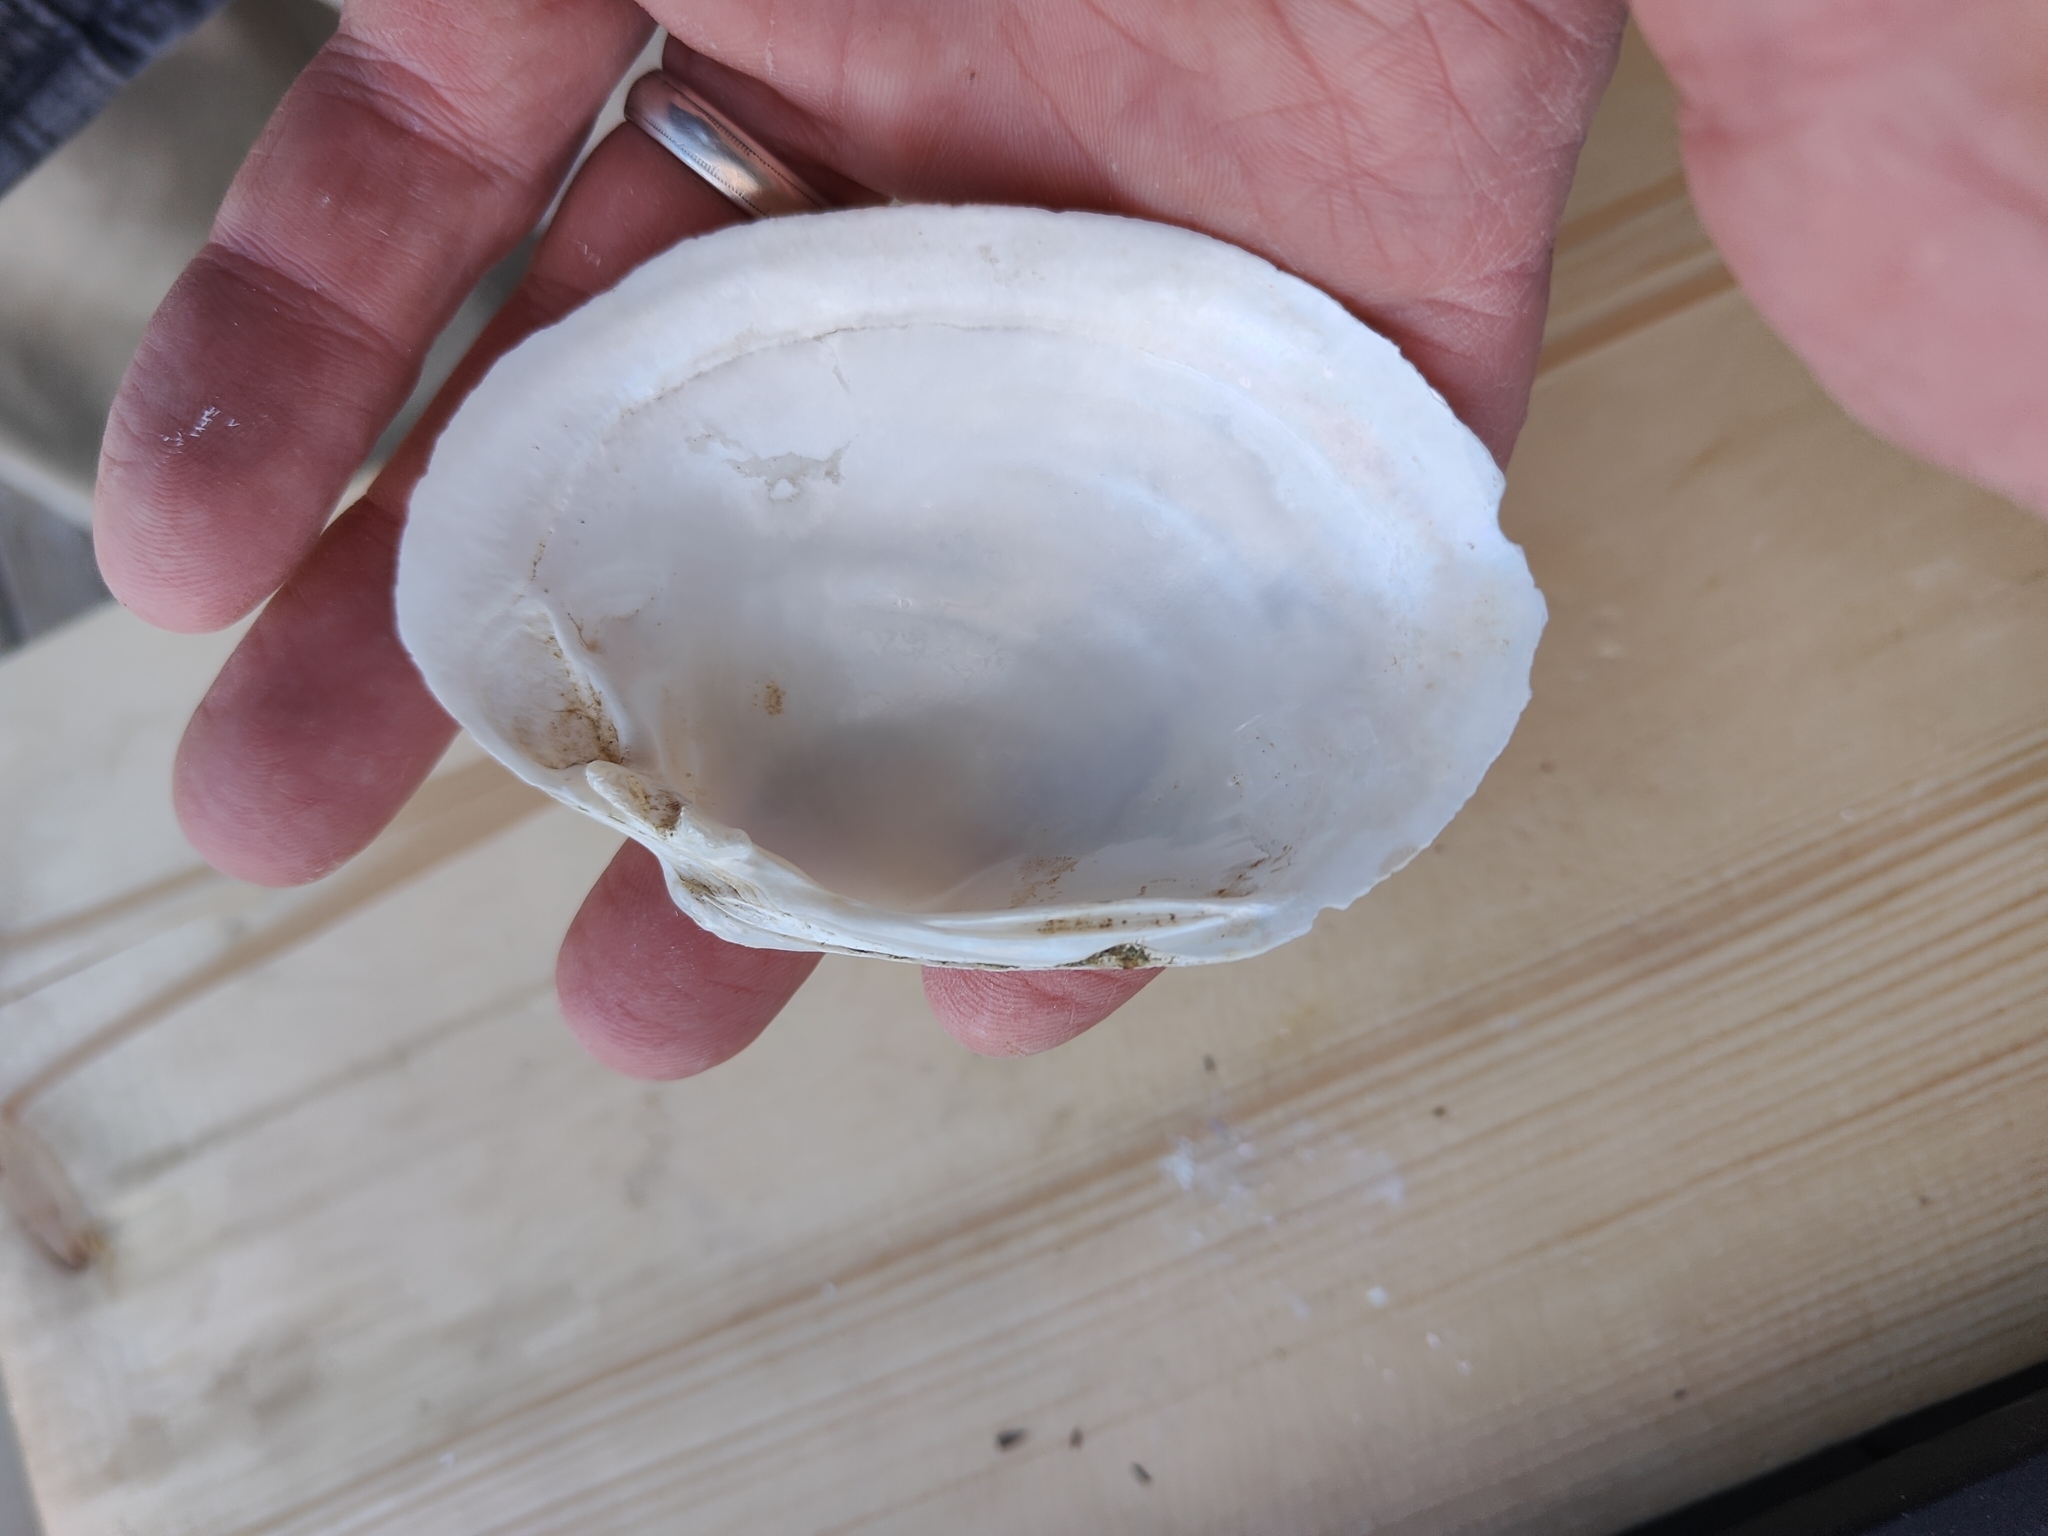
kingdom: Animalia
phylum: Mollusca
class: Bivalvia
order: Unionida
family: Unionidae
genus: Lampsilis
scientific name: Lampsilis cardium
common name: Plain pocketbook
